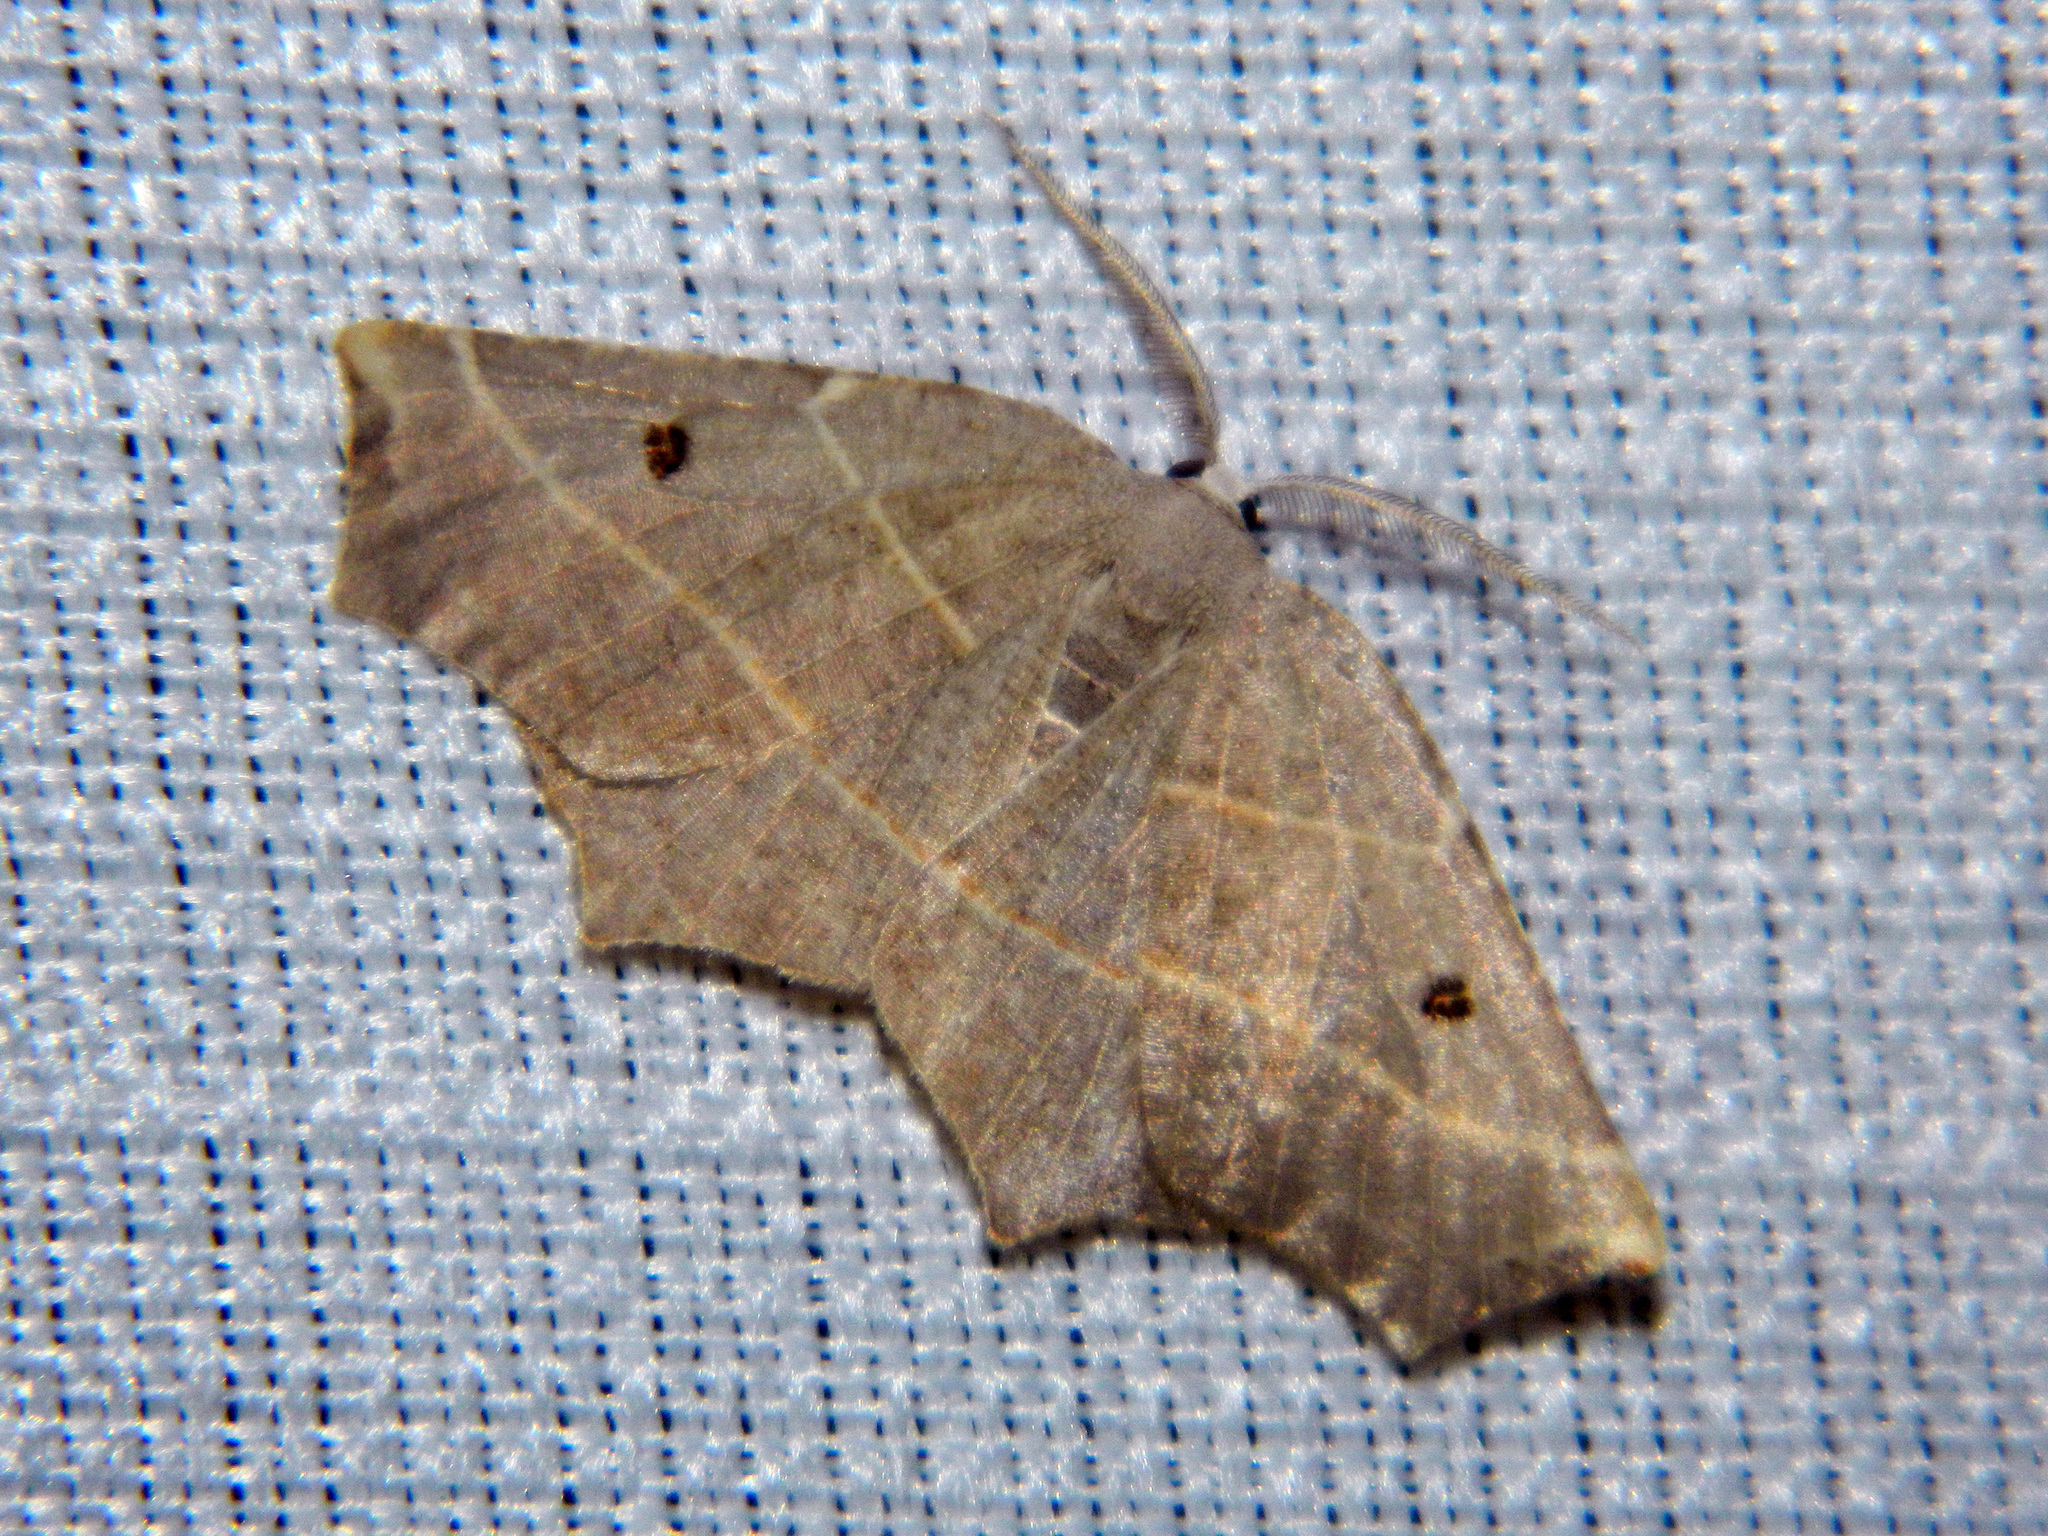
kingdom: Animalia
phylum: Arthropoda
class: Insecta
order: Lepidoptera
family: Geometridae
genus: Metanema
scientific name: Metanema inatomaria
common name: Pale metanema
